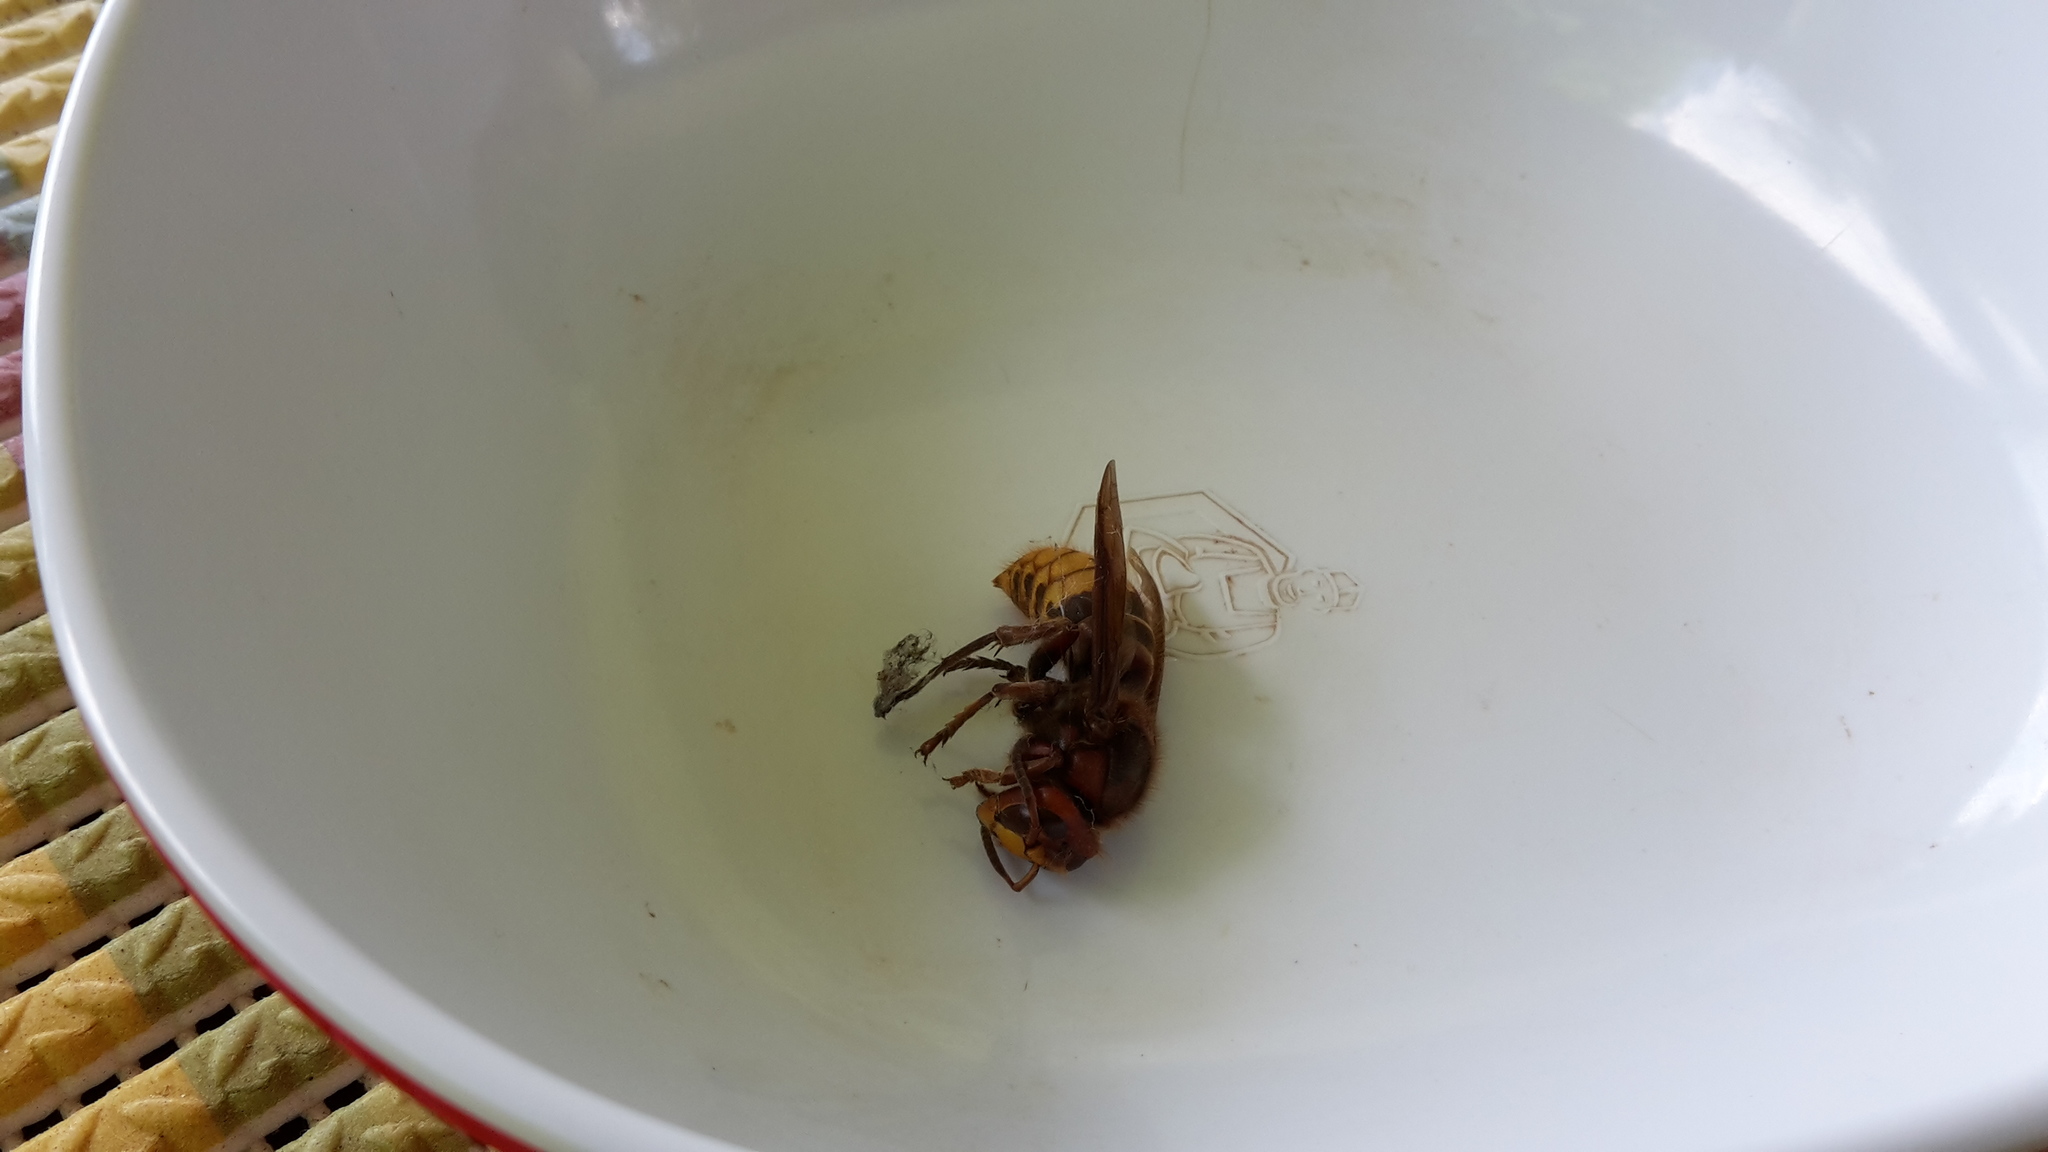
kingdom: Animalia
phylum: Arthropoda
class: Insecta
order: Hymenoptera
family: Vespidae
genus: Vespa
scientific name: Vespa crabro
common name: Hornet
